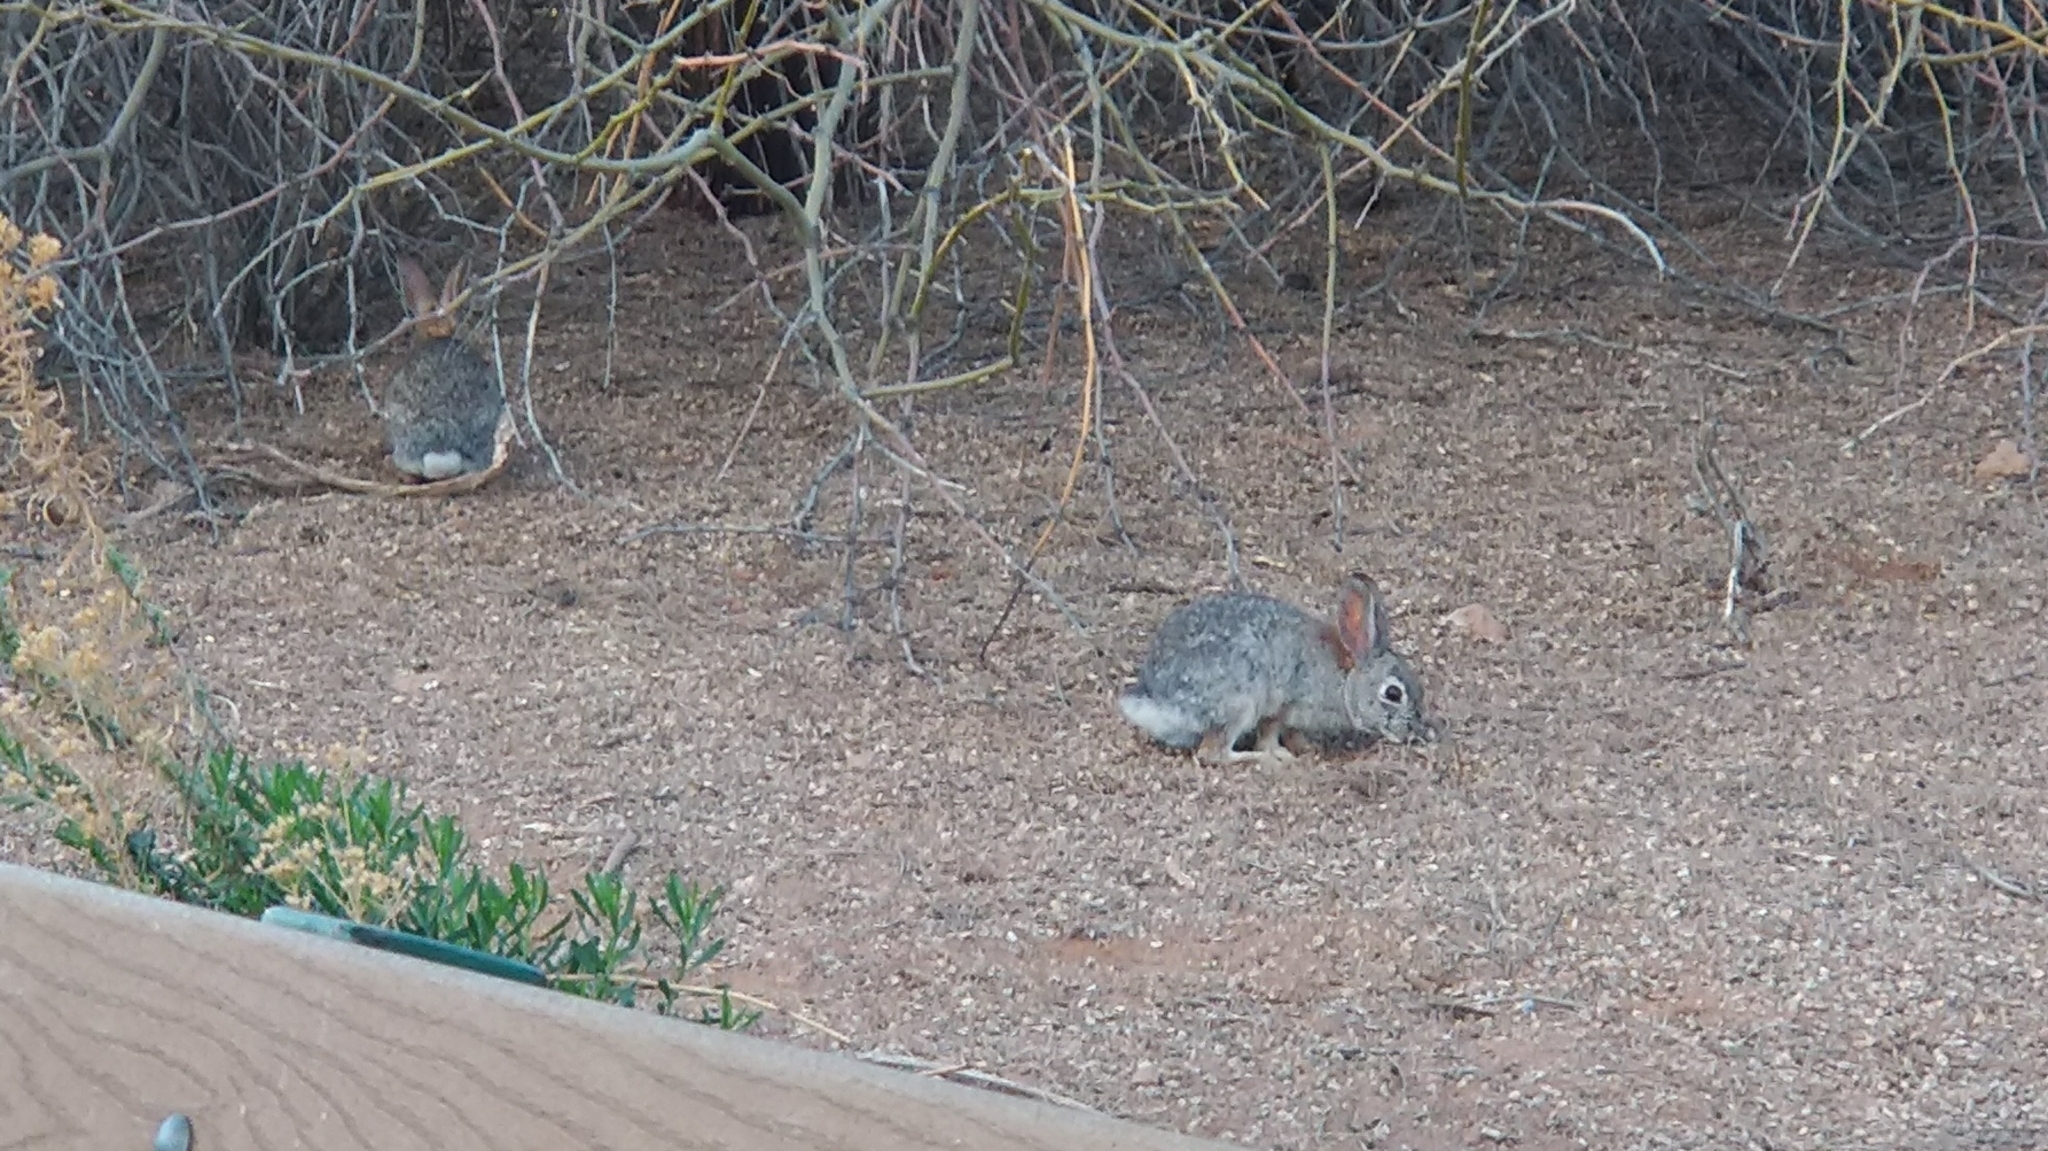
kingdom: Animalia
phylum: Chordata
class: Mammalia
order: Lagomorpha
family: Leporidae
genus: Sylvilagus
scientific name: Sylvilagus audubonii
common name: Desert cottontail
